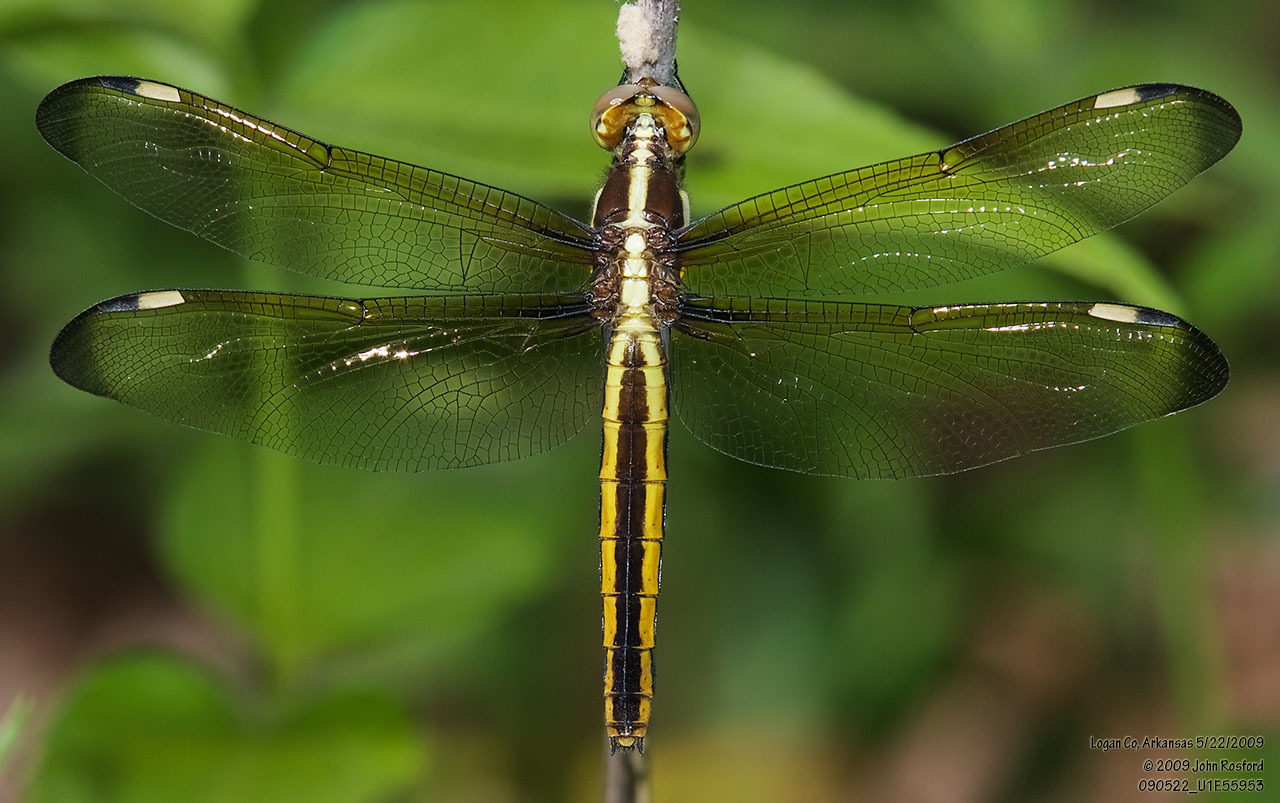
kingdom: Animalia
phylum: Arthropoda
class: Insecta
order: Odonata
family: Libellulidae
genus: Libellula
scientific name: Libellula cyanea
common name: Spangled skimmer
